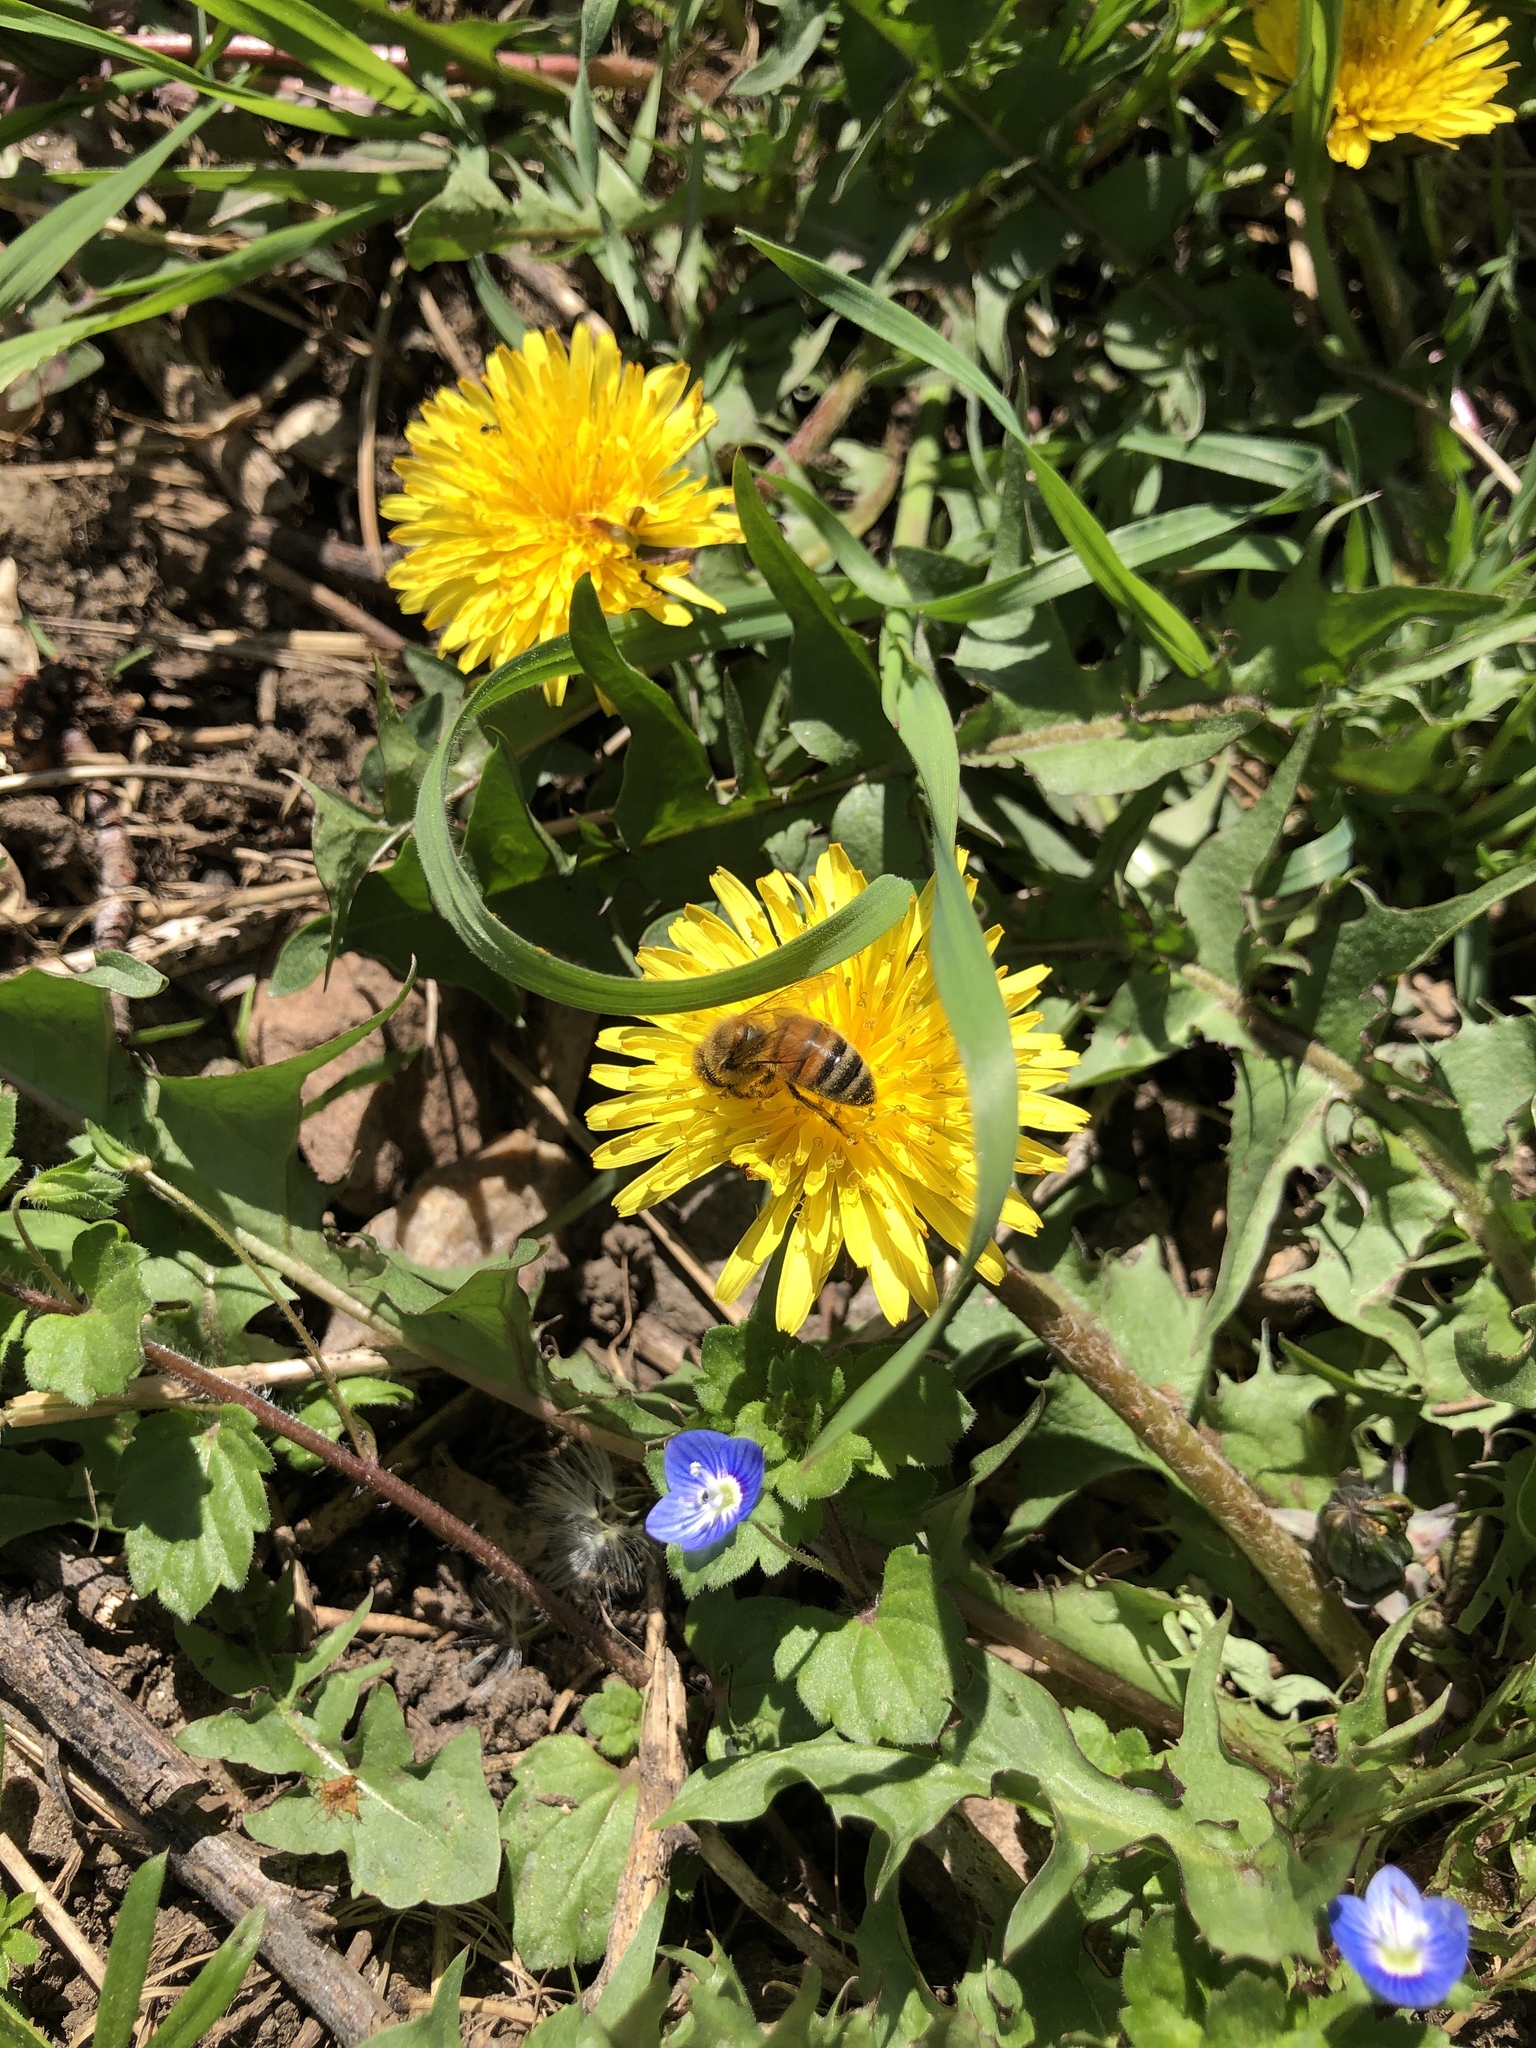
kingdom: Animalia
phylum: Arthropoda
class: Insecta
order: Hymenoptera
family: Apidae
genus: Apis
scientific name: Apis mellifera
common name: Honey bee
